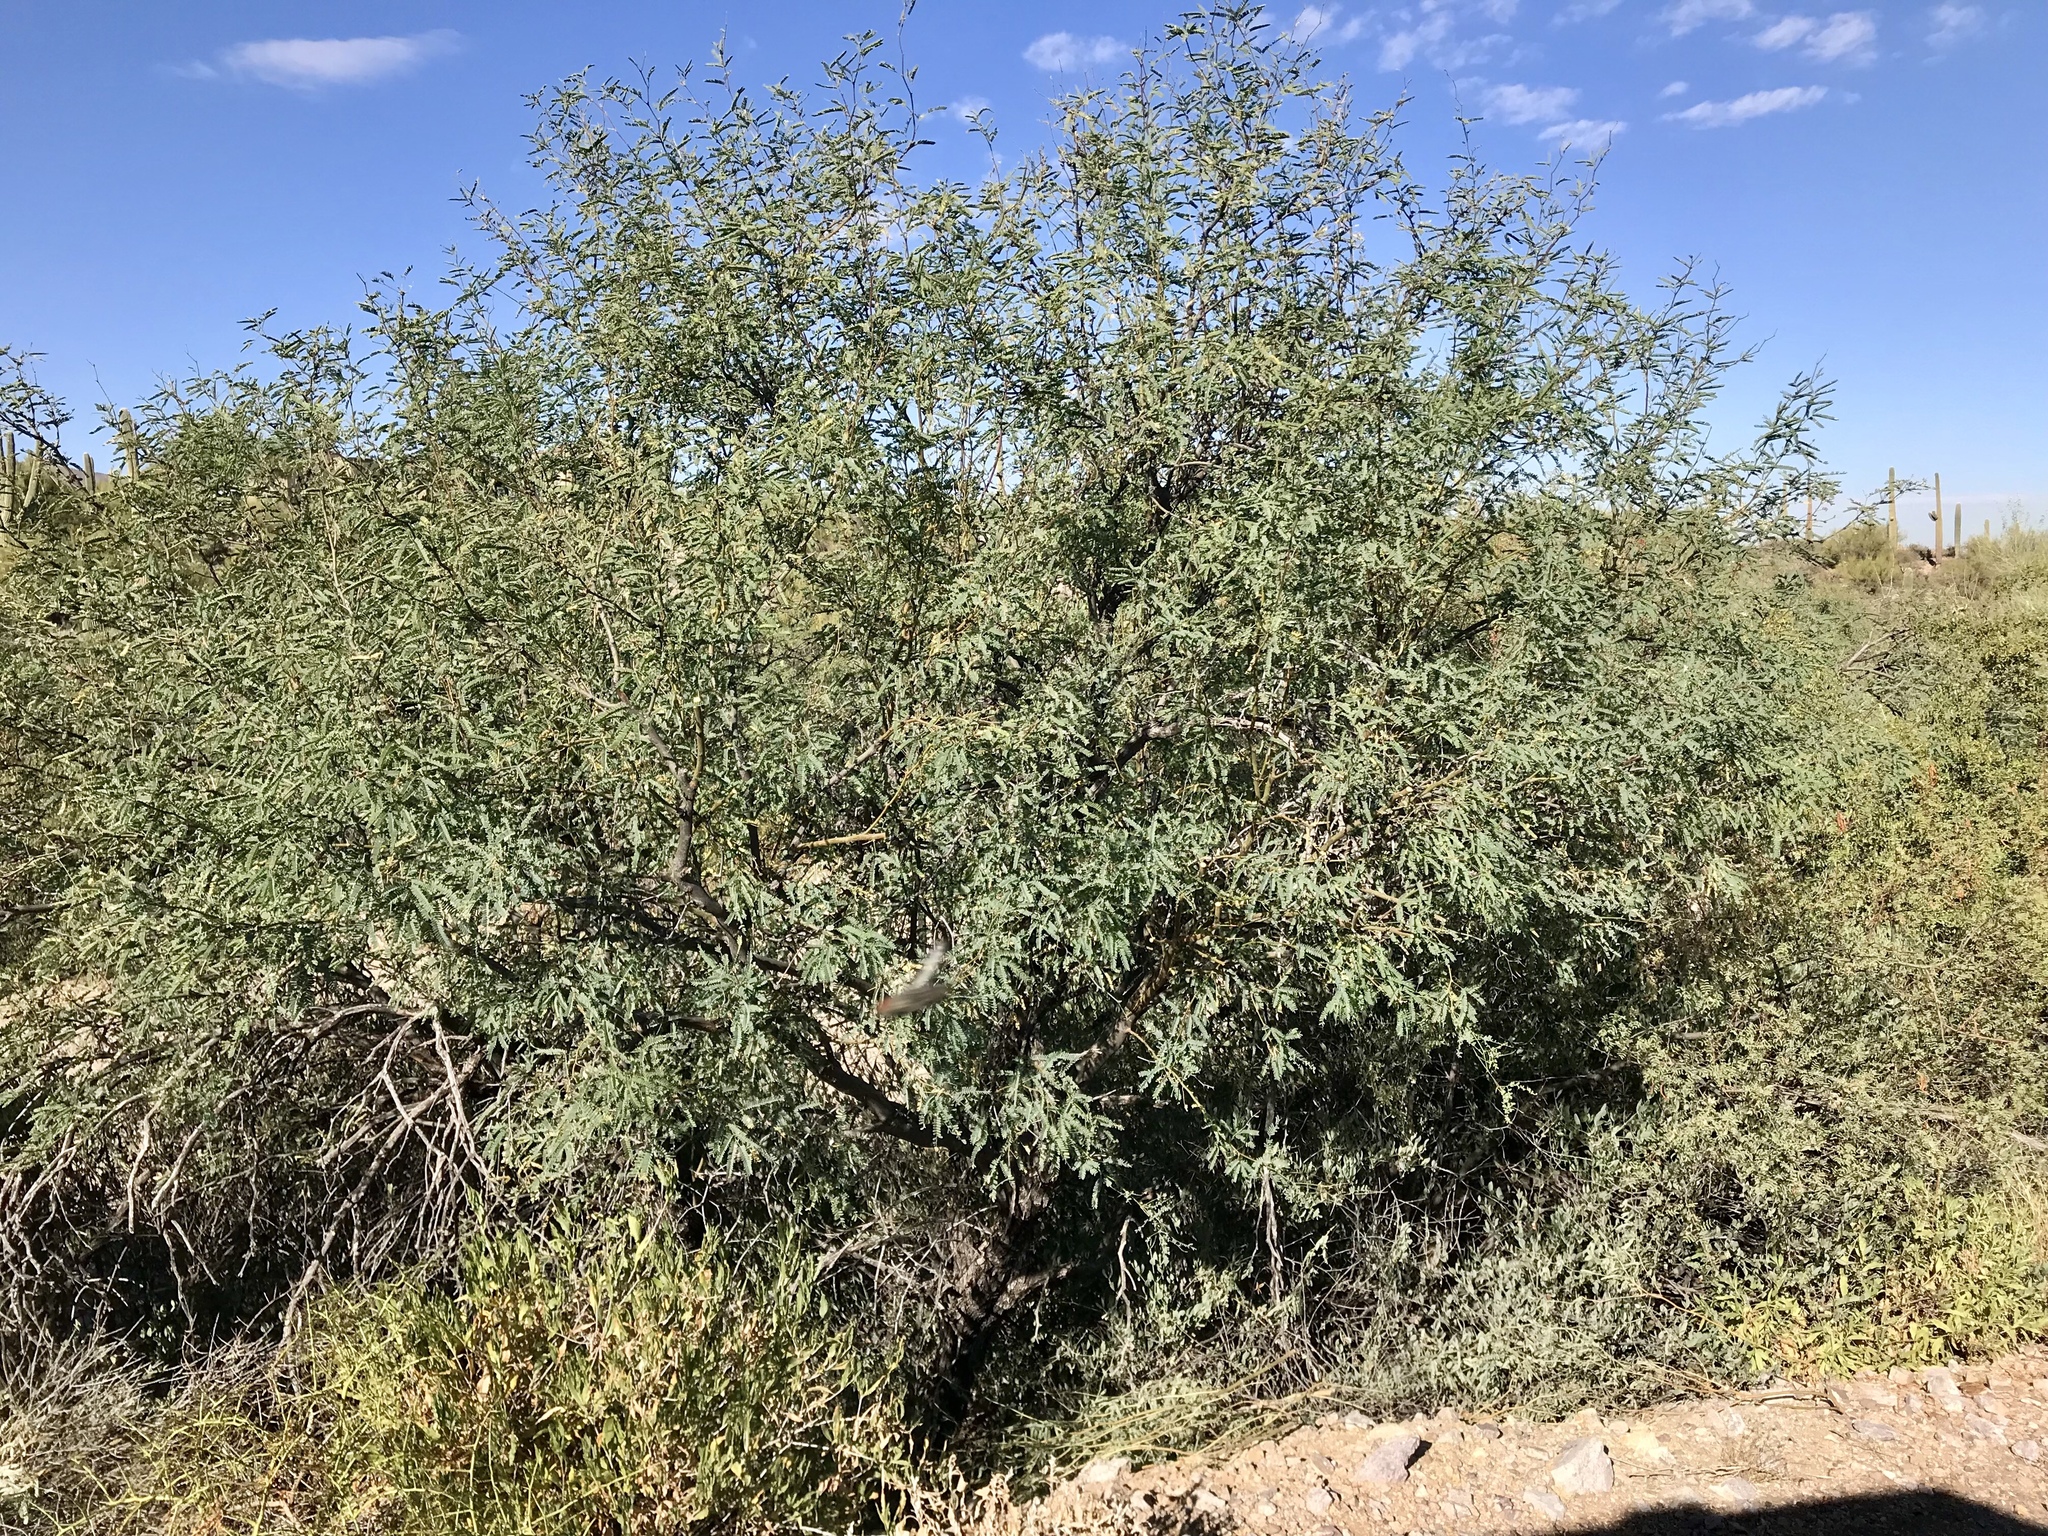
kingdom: Plantae
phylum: Tracheophyta
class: Magnoliopsida
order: Fabales
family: Fabaceae
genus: Prosopis
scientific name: Prosopis velutina
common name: Velvet mesquite
